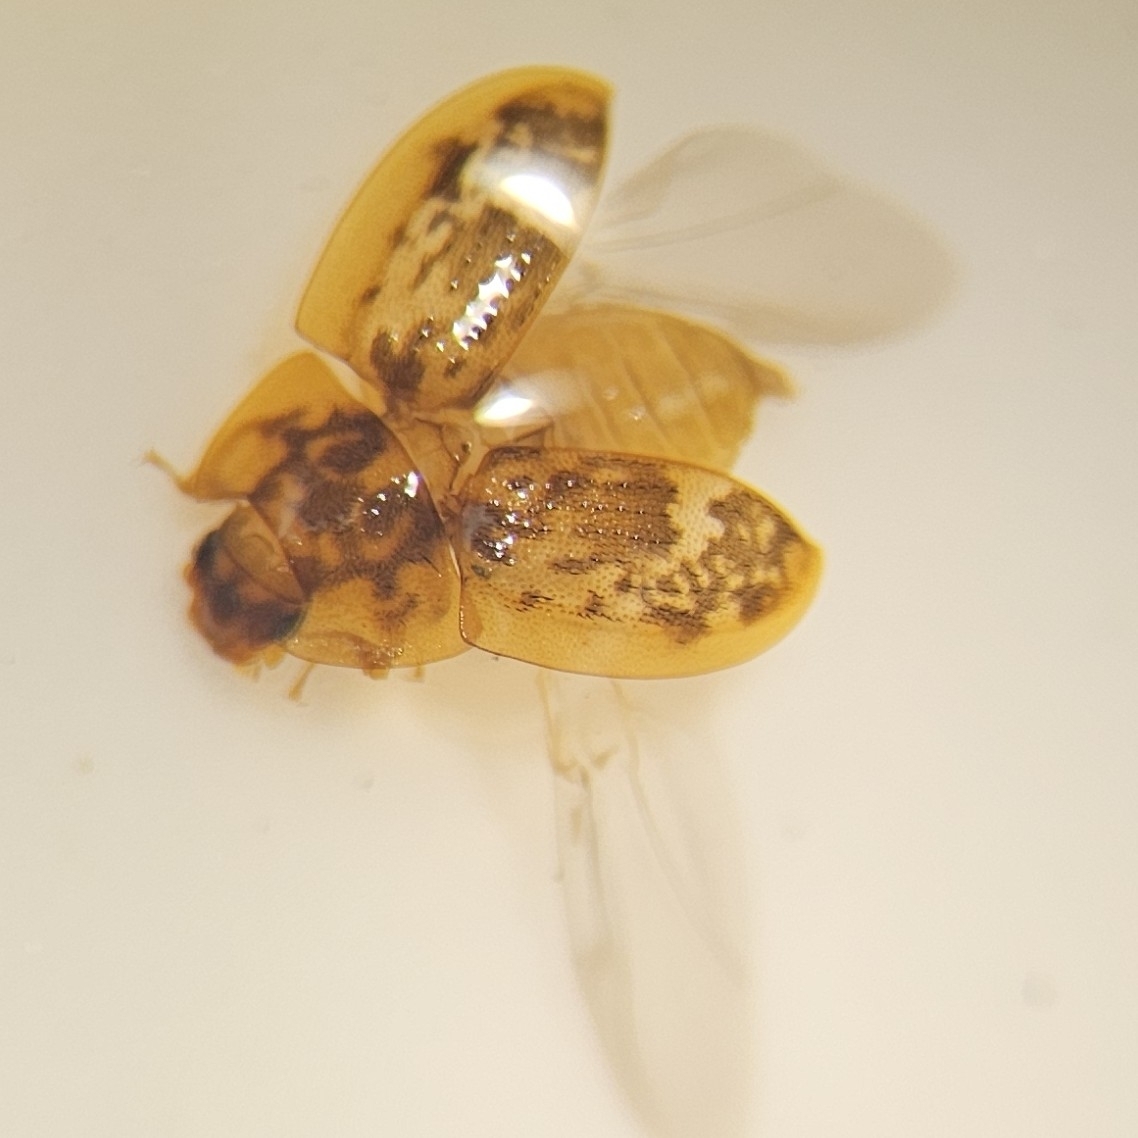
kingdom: Animalia
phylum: Arthropoda
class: Insecta
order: Coleoptera
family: Nitidulidae
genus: Lobiopa
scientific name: Lobiopa undulata
